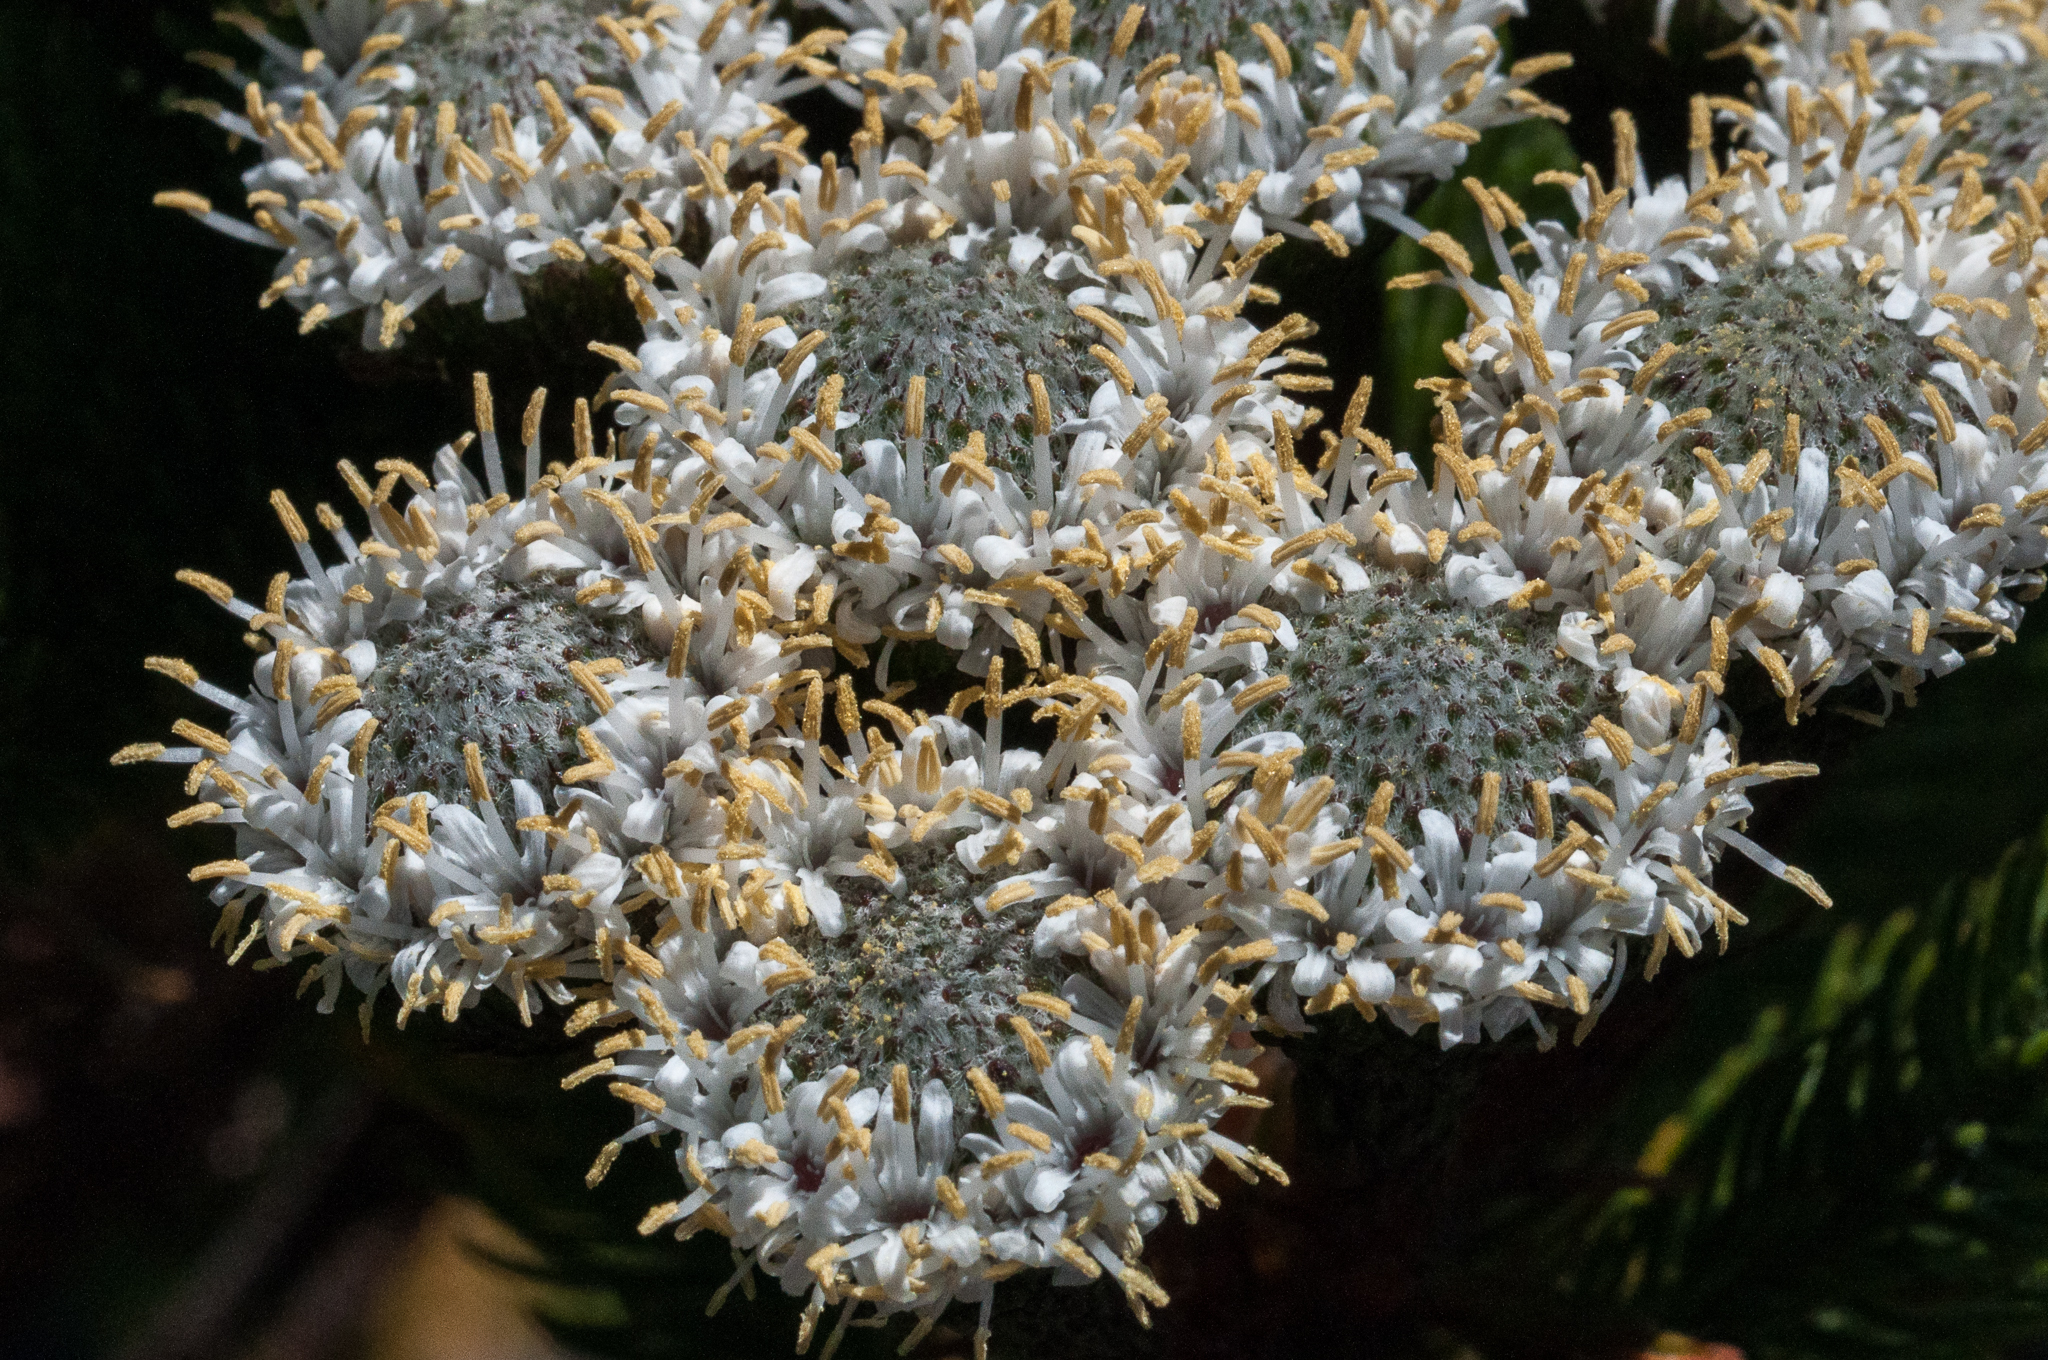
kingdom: Plantae
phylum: Tracheophyta
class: Magnoliopsida
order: Bruniales
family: Bruniaceae
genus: Berzelia
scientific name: Berzelia albiflora
